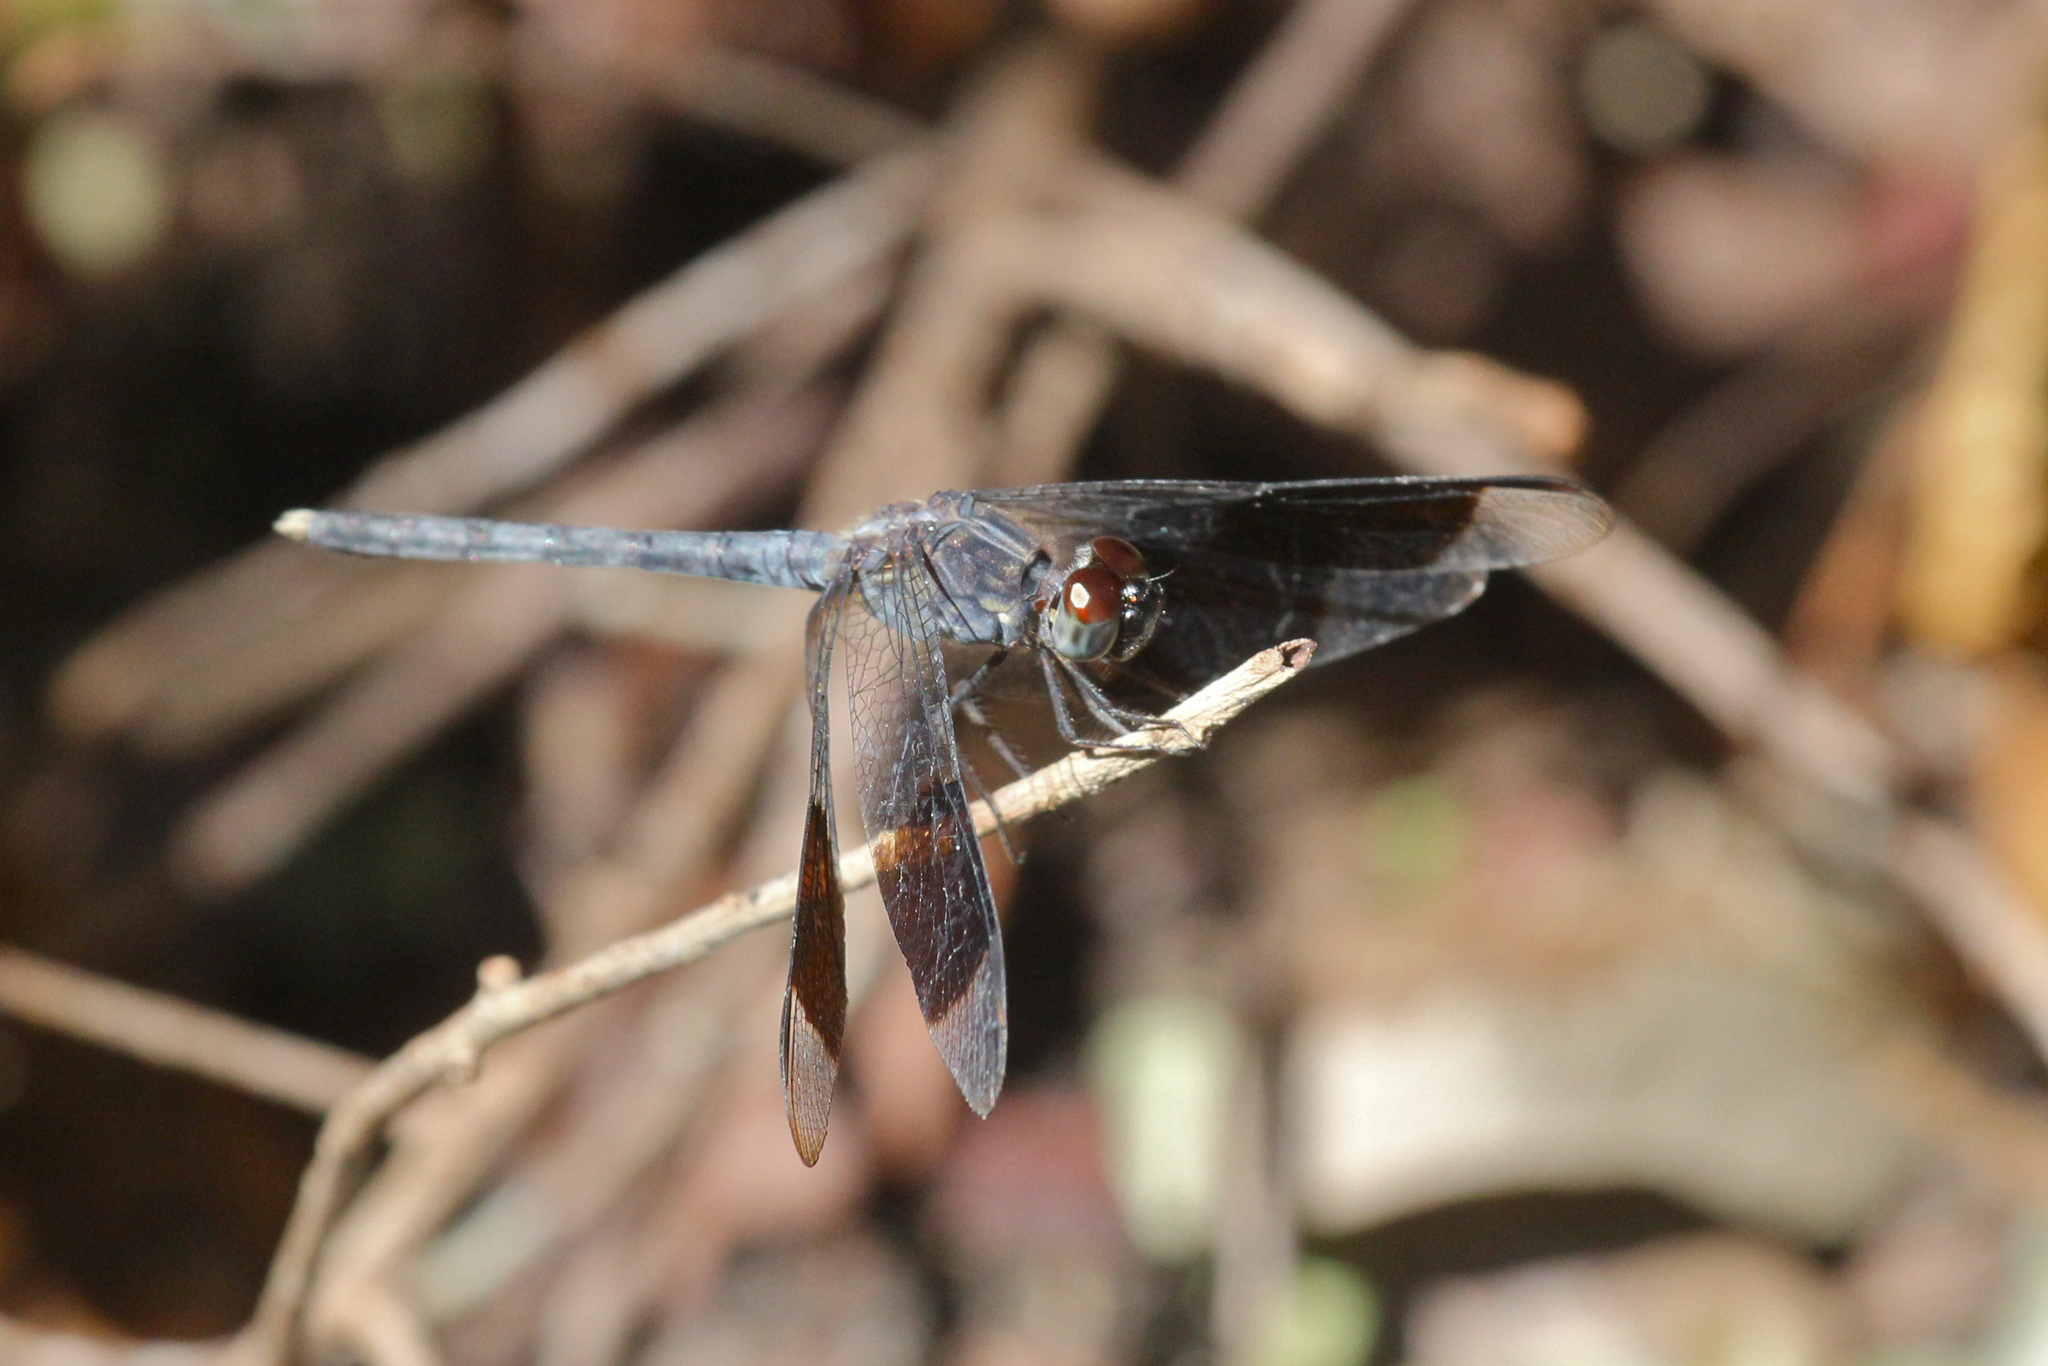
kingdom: Animalia
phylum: Arthropoda
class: Insecta
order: Odonata
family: Libellulidae
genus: Erythrodiplax
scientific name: Erythrodiplax umbrata
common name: Band-winged dragonlet
